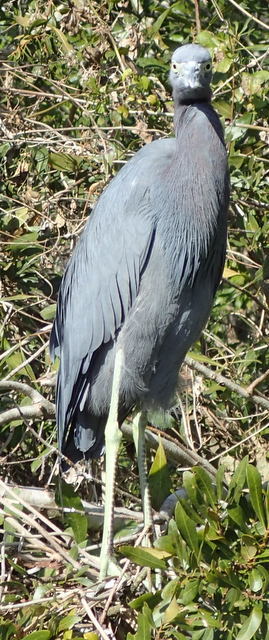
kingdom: Animalia
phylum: Chordata
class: Aves
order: Pelecaniformes
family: Ardeidae
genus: Egretta
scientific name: Egretta caerulea
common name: Little blue heron
